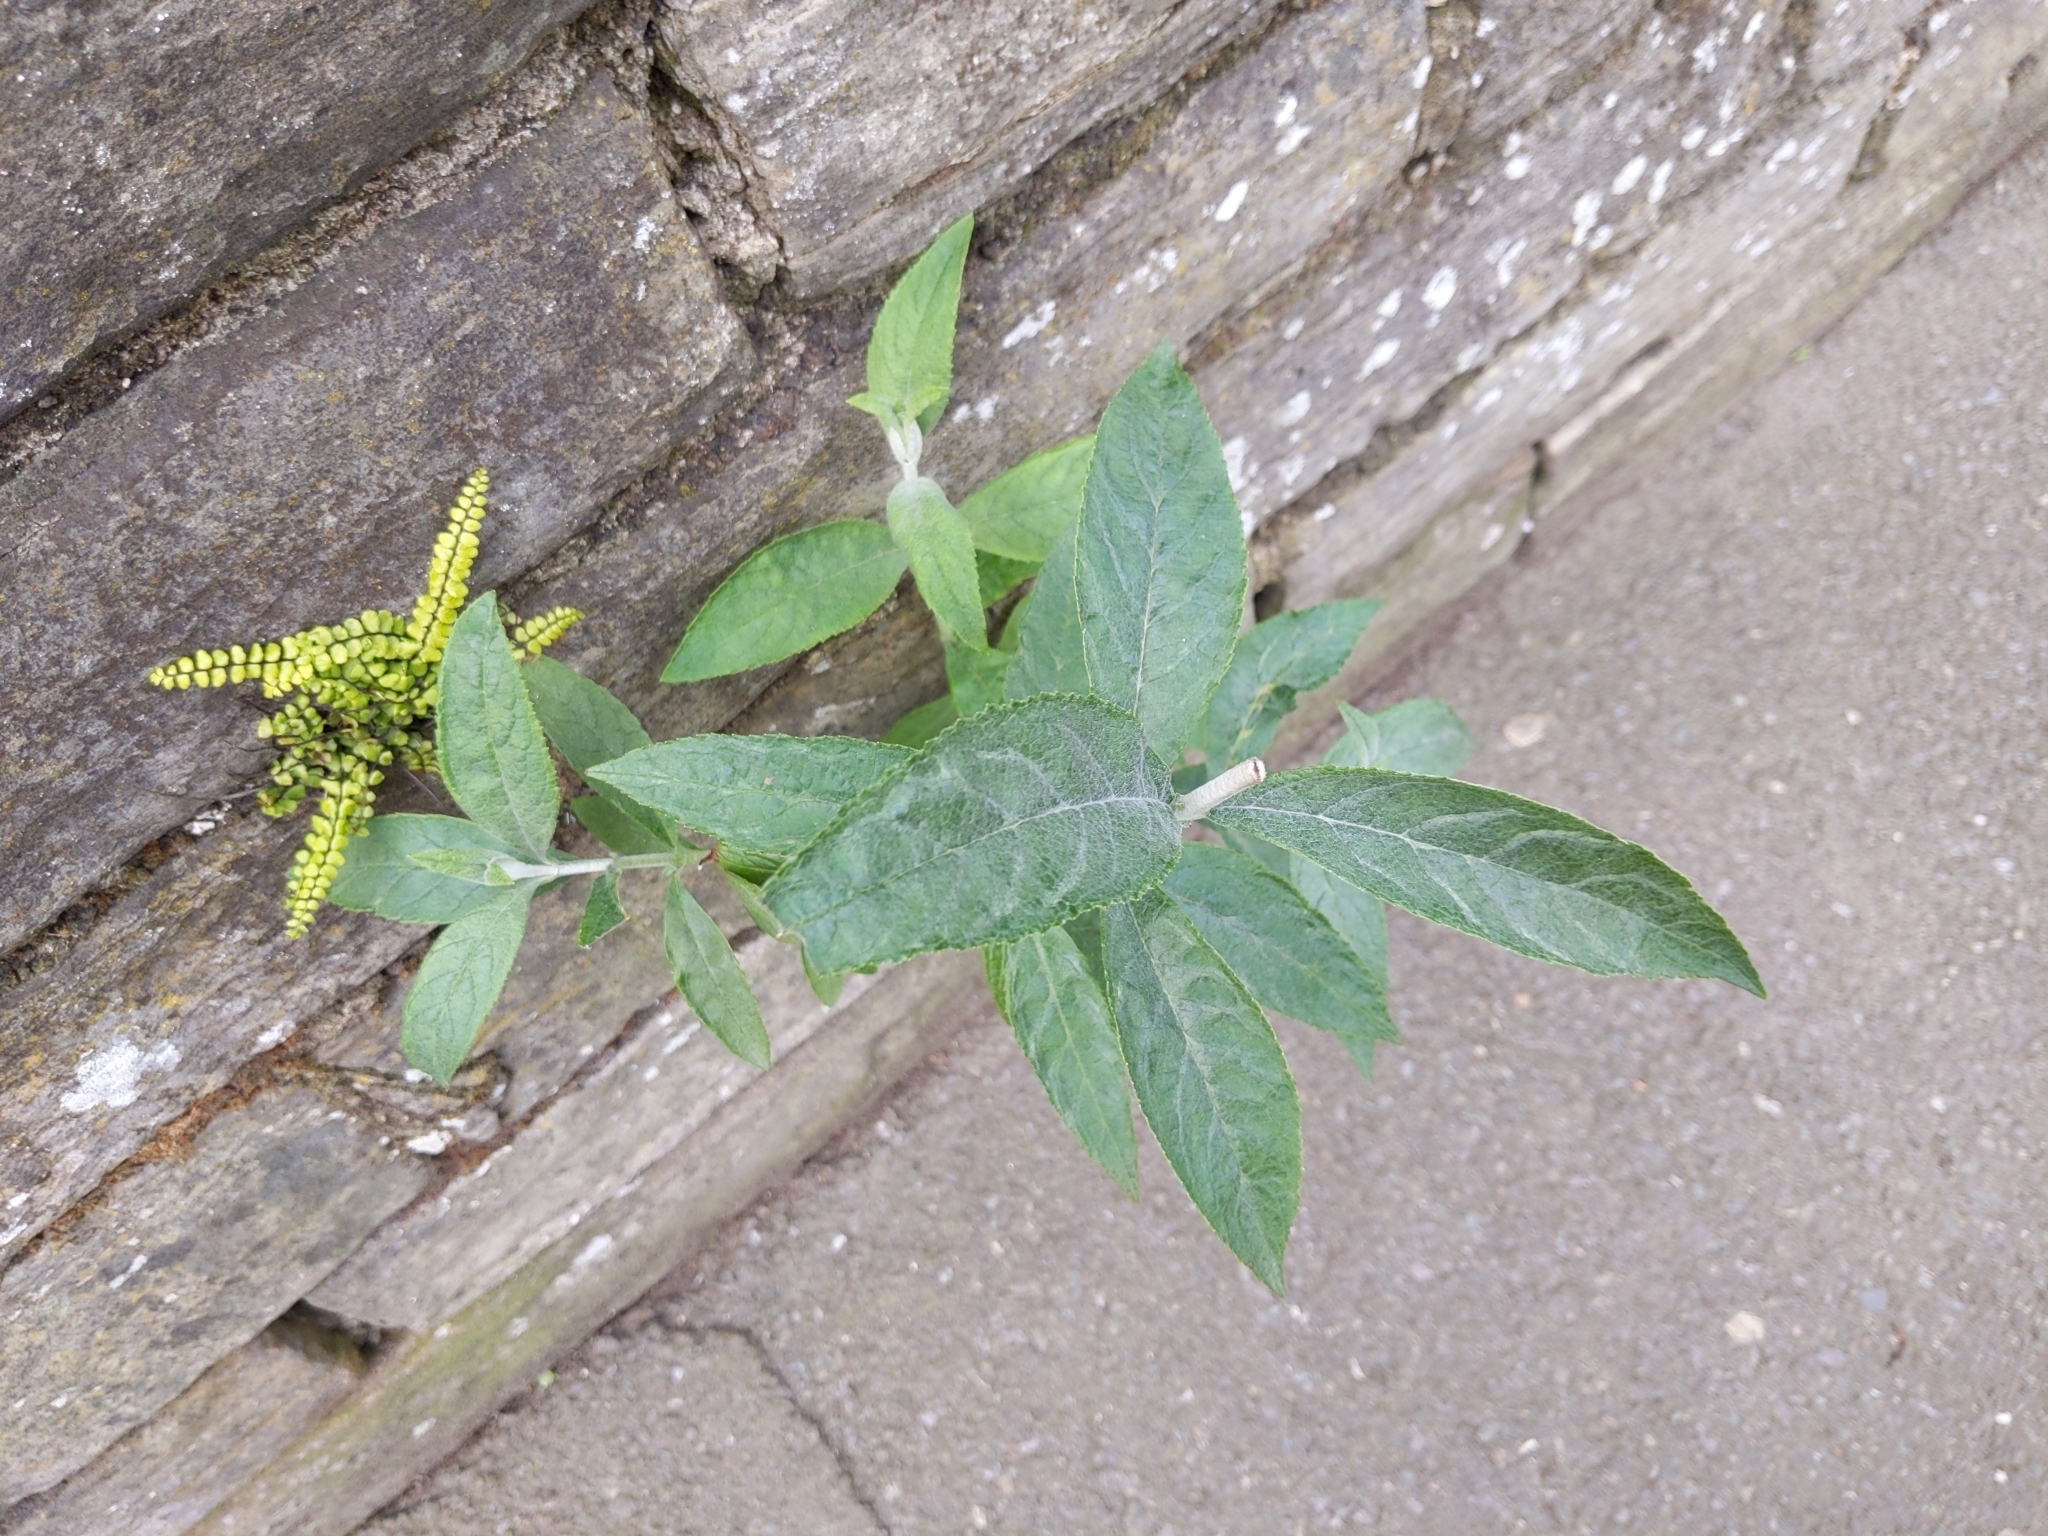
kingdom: Plantae
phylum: Tracheophyta
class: Magnoliopsida
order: Lamiales
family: Scrophulariaceae
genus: Buddleja
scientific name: Buddleja davidii
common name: Butterfly-bush
